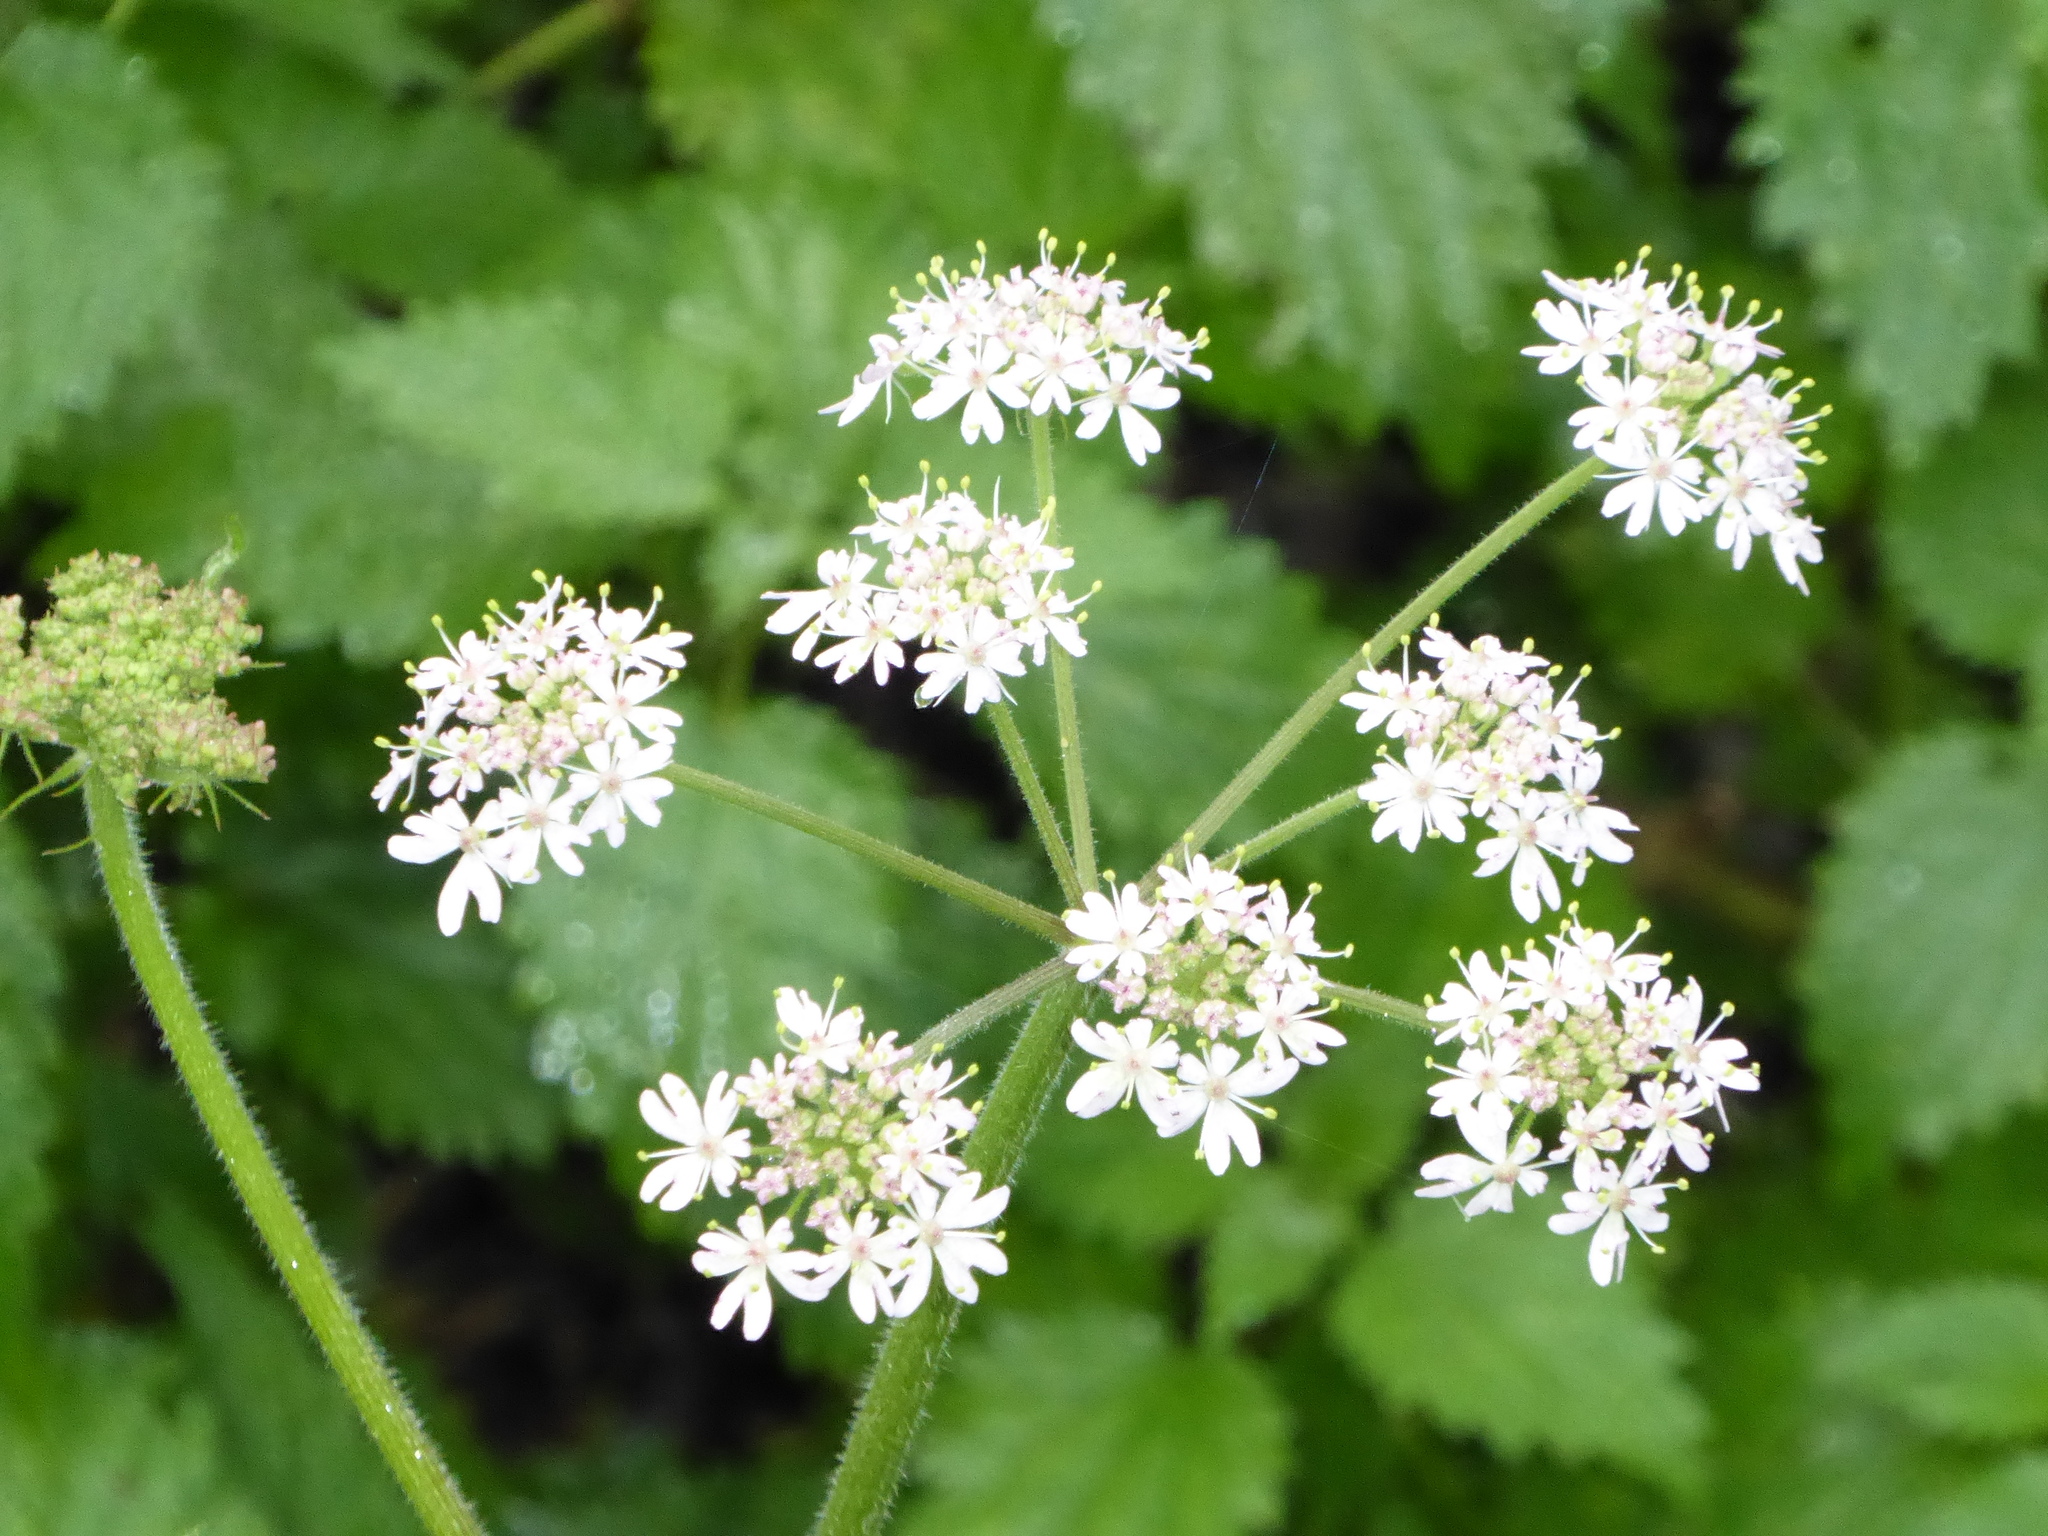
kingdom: Plantae
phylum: Tracheophyta
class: Magnoliopsida
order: Apiales
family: Apiaceae
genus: Heracleum
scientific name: Heracleum sphondylium
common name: Hogweed
